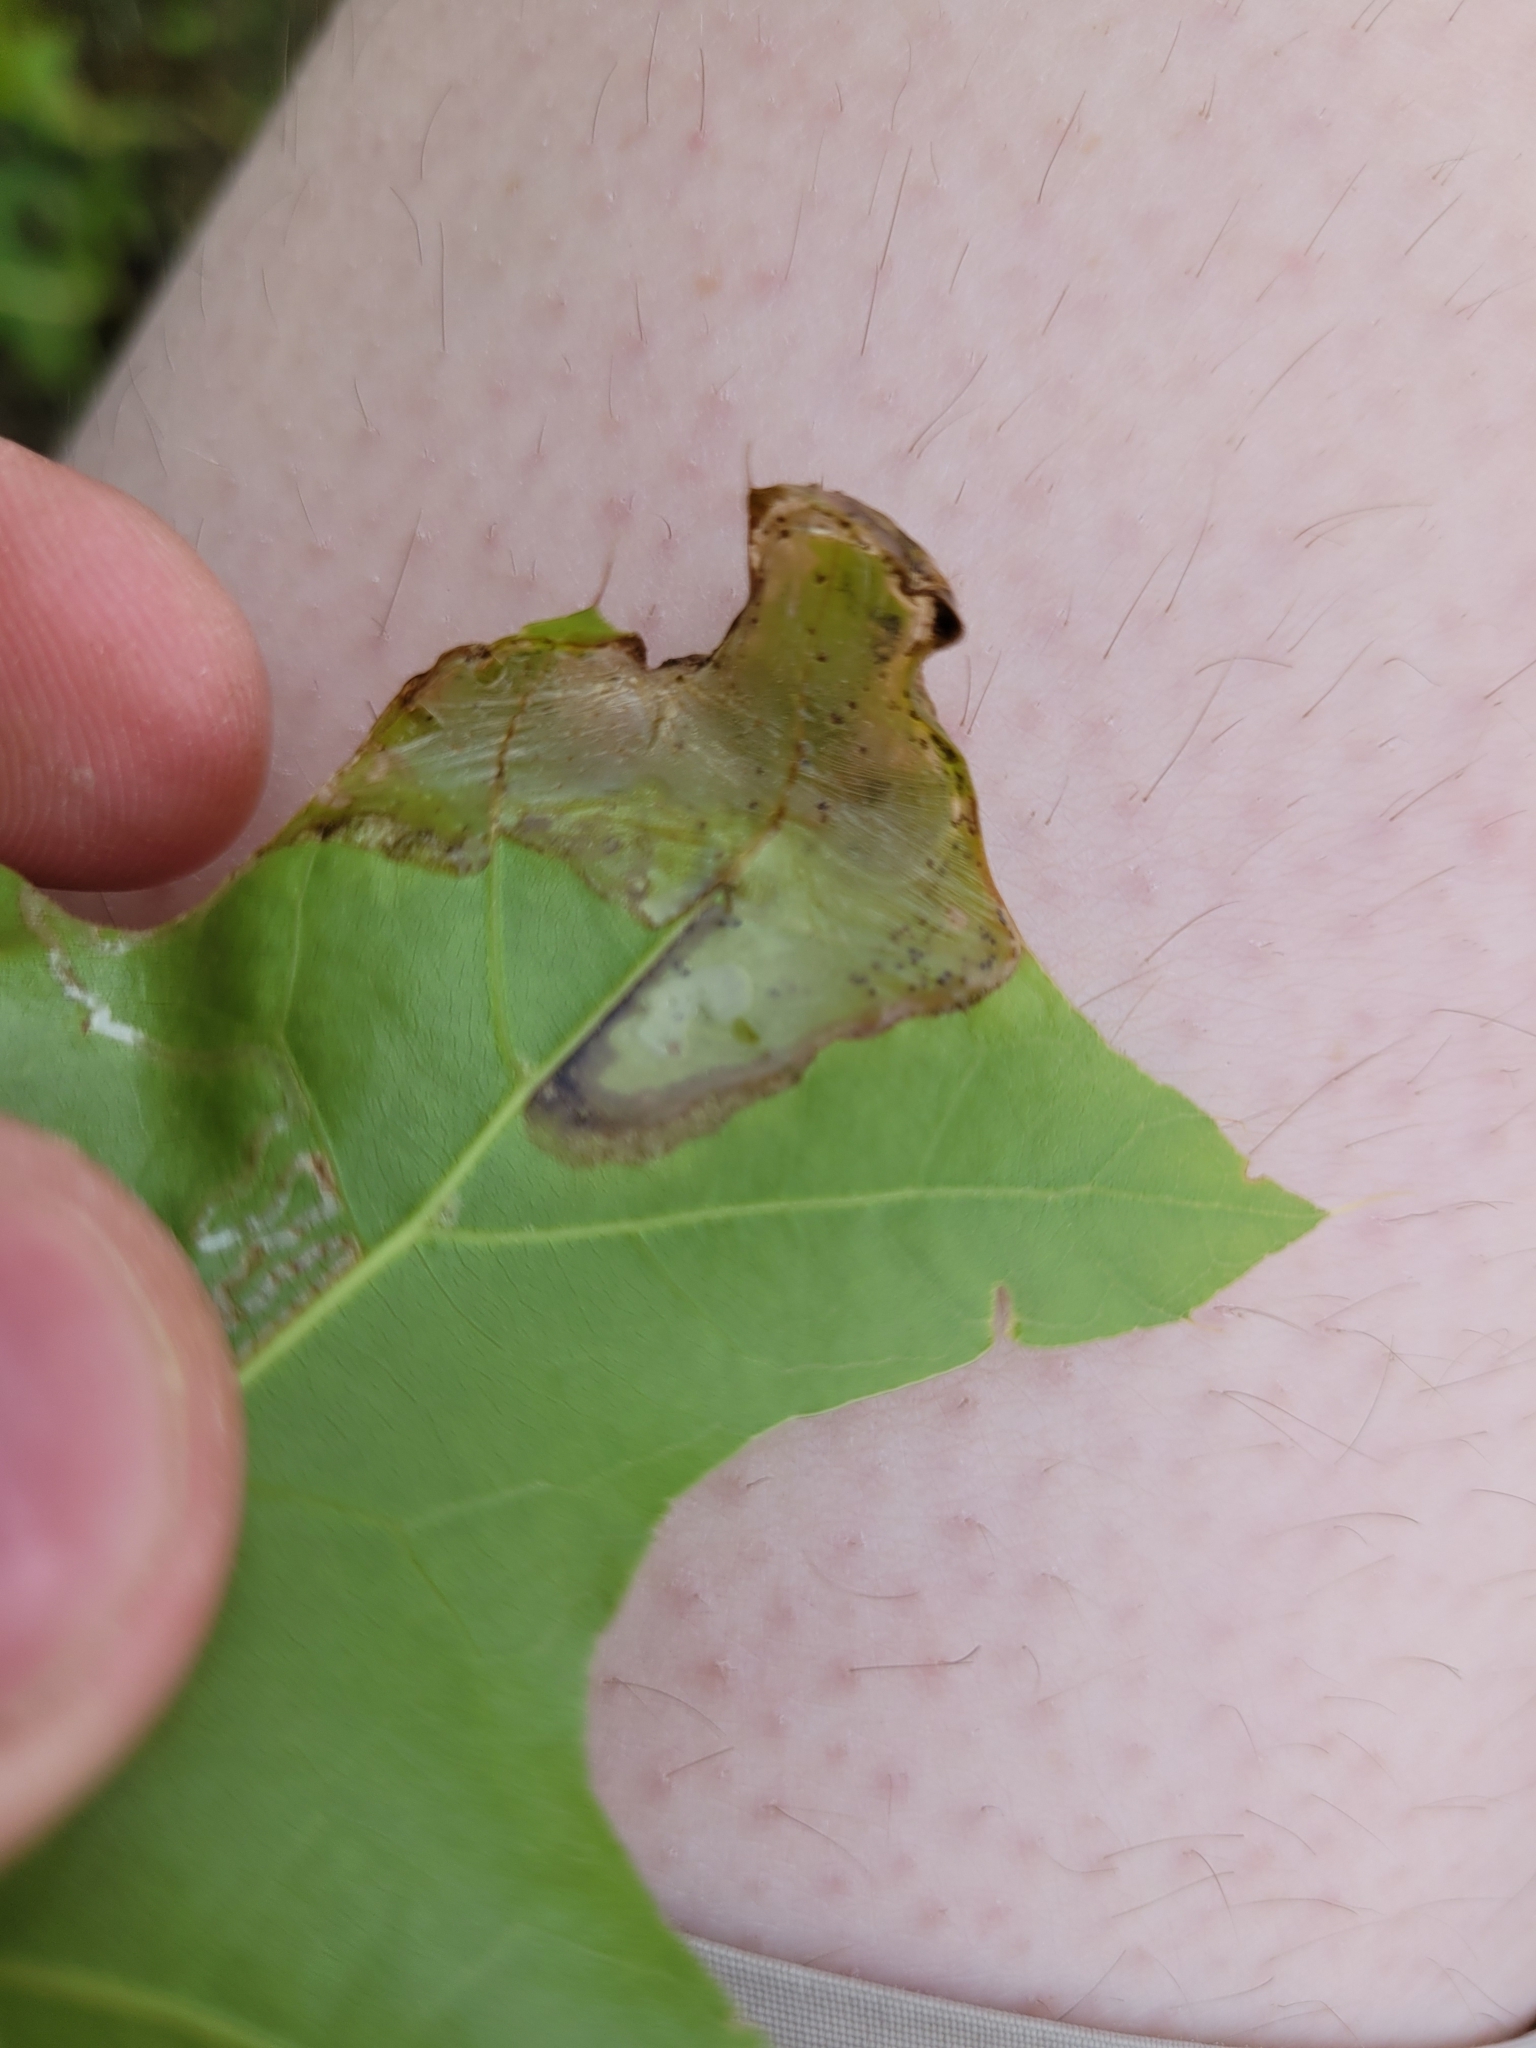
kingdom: Animalia
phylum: Arthropoda
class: Insecta
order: Lepidoptera
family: Gracillariidae
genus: Acrocercops
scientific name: Acrocercops albinatella
